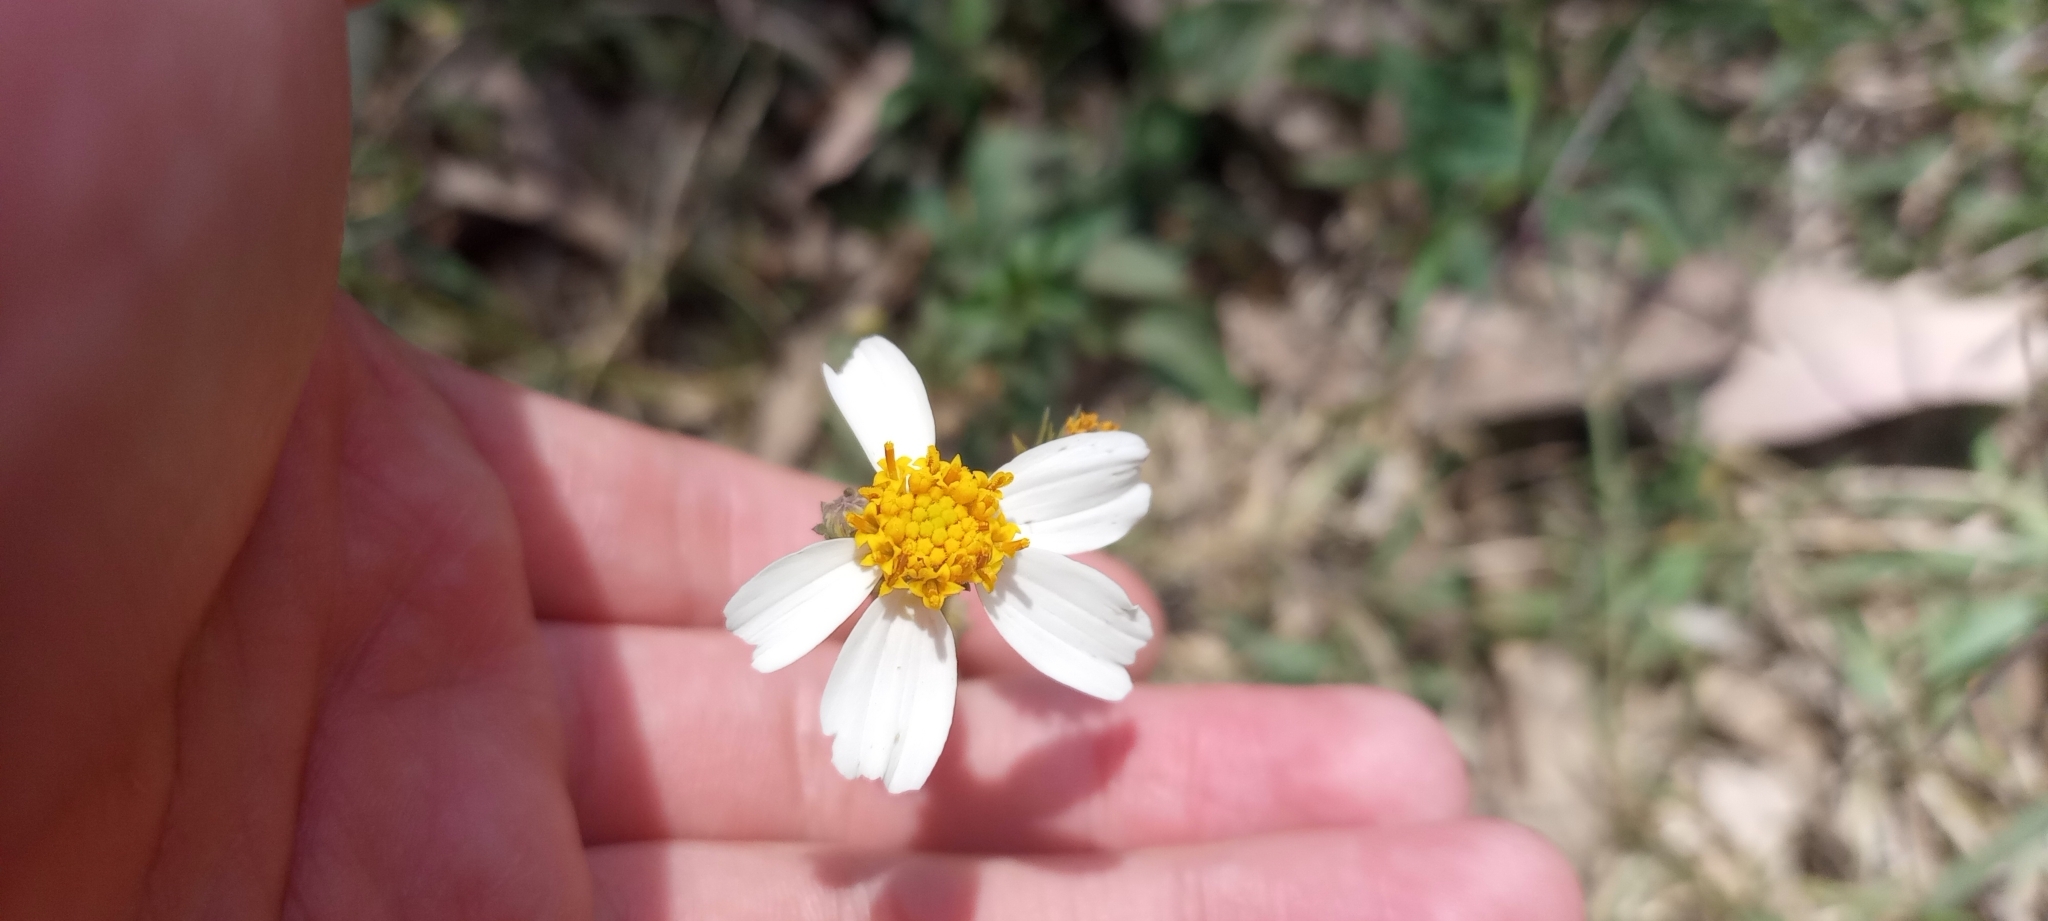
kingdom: Plantae
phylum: Tracheophyta
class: Magnoliopsida
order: Asterales
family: Asteraceae
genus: Bidens
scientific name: Bidens odorata
